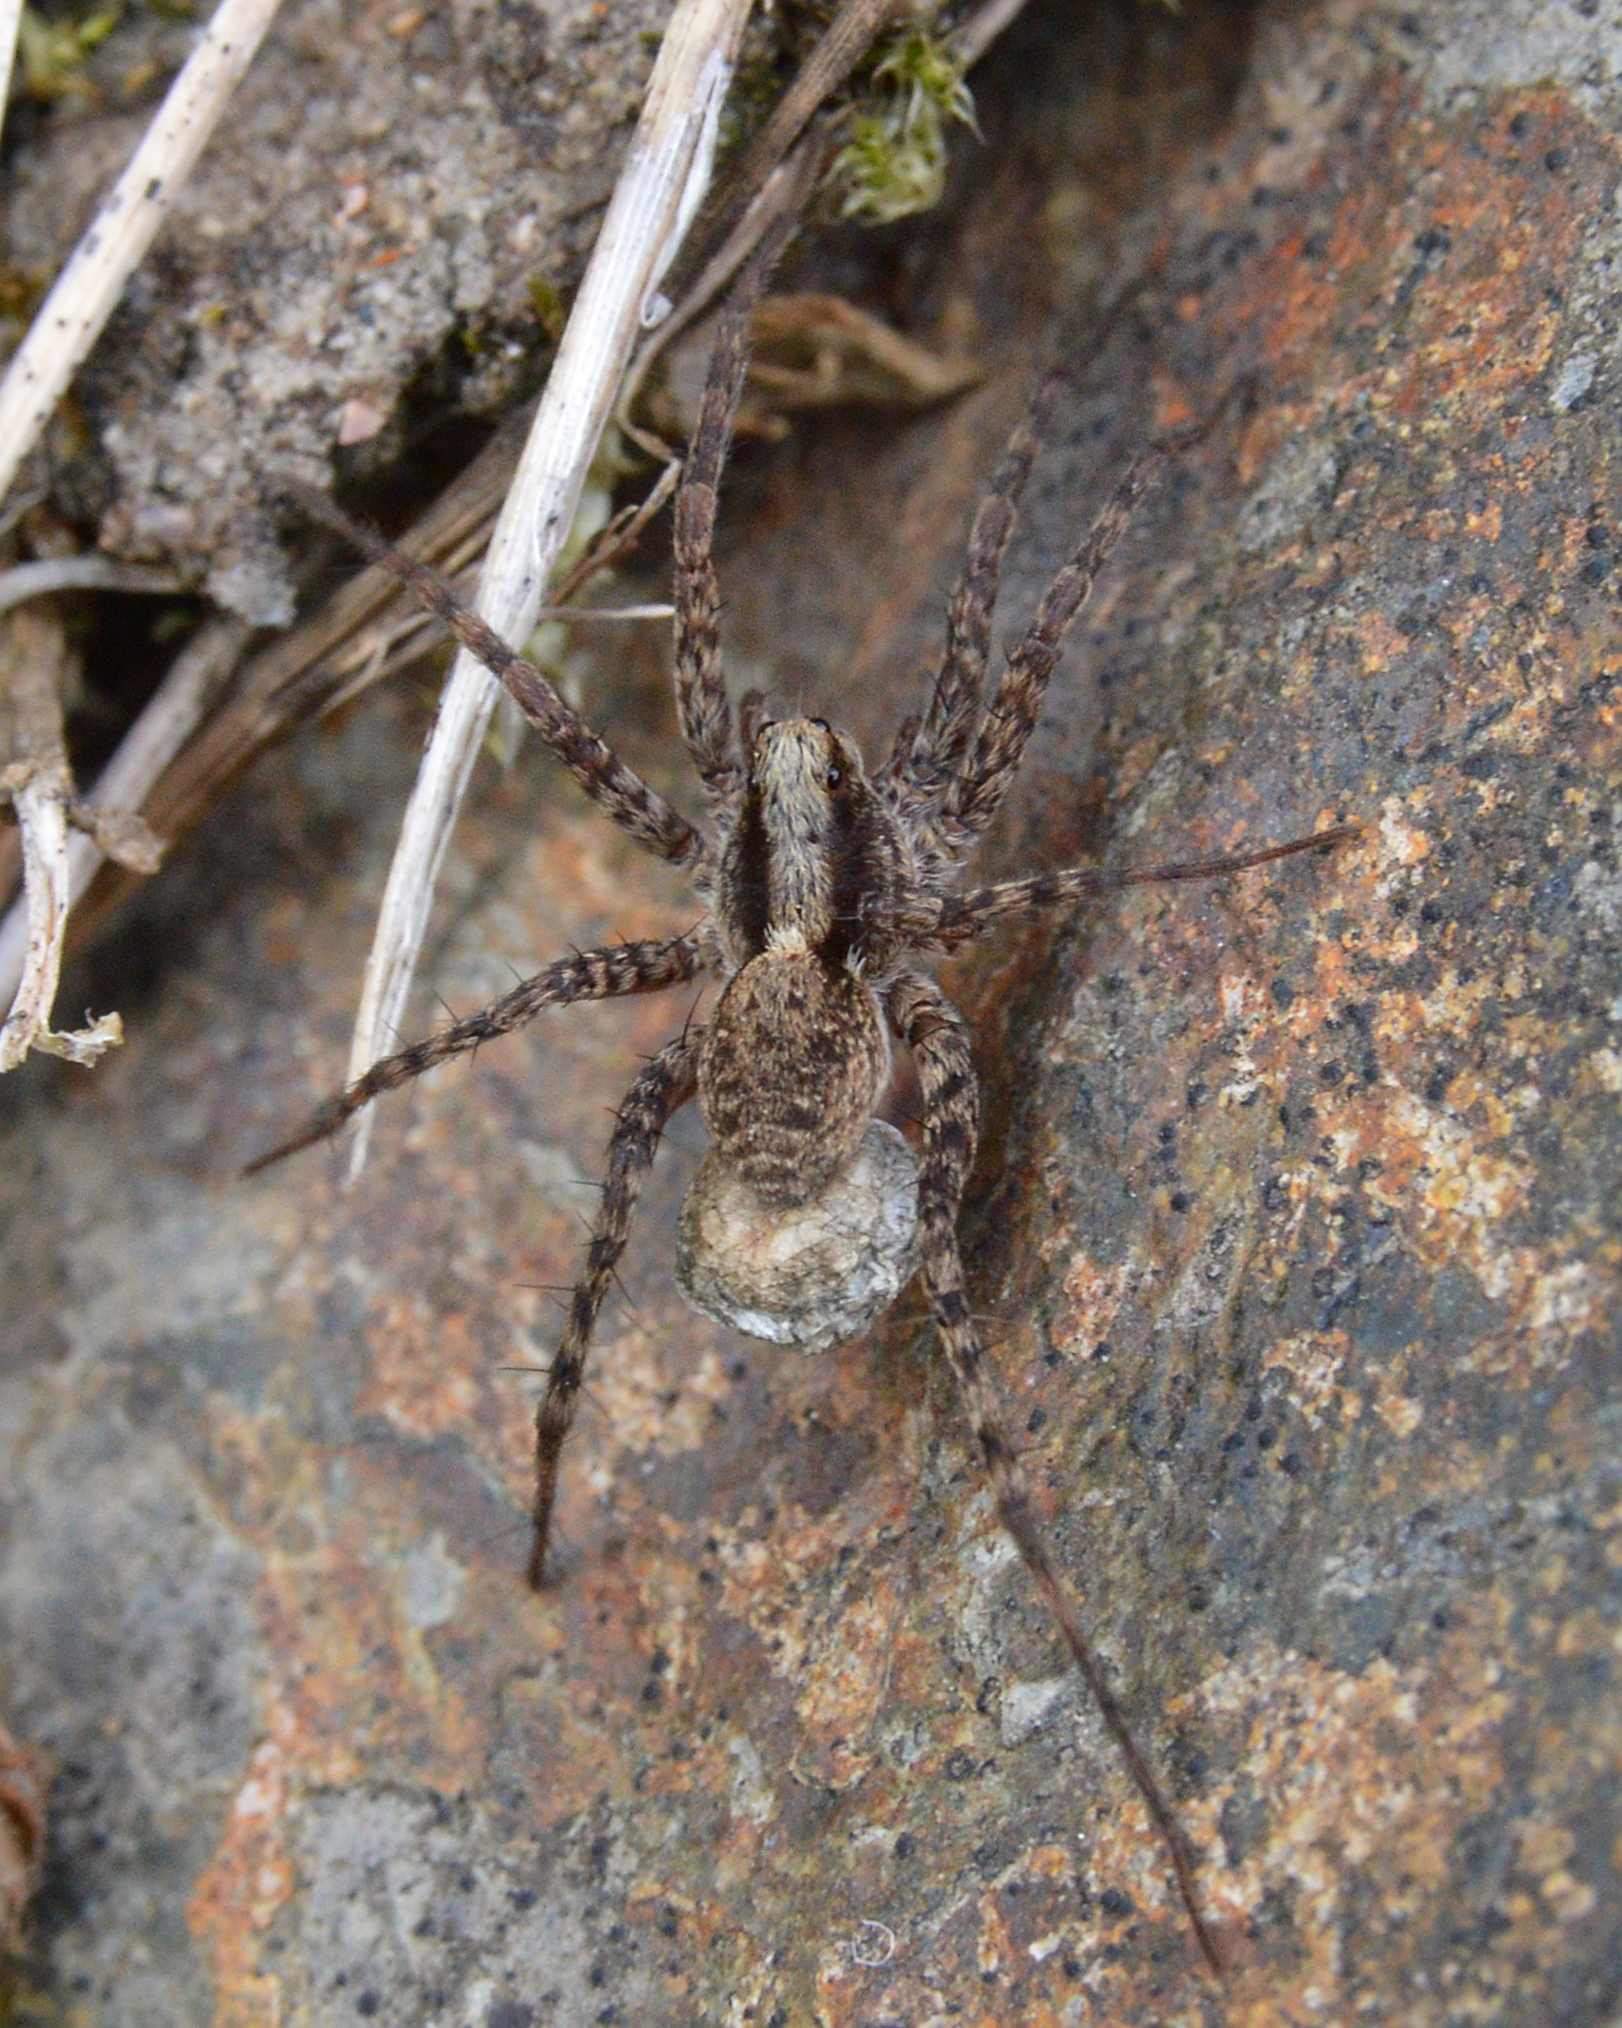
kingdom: Animalia
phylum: Arthropoda
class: Arachnida
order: Araneae
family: Lycosidae
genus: Pardosa
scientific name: Pardosa
